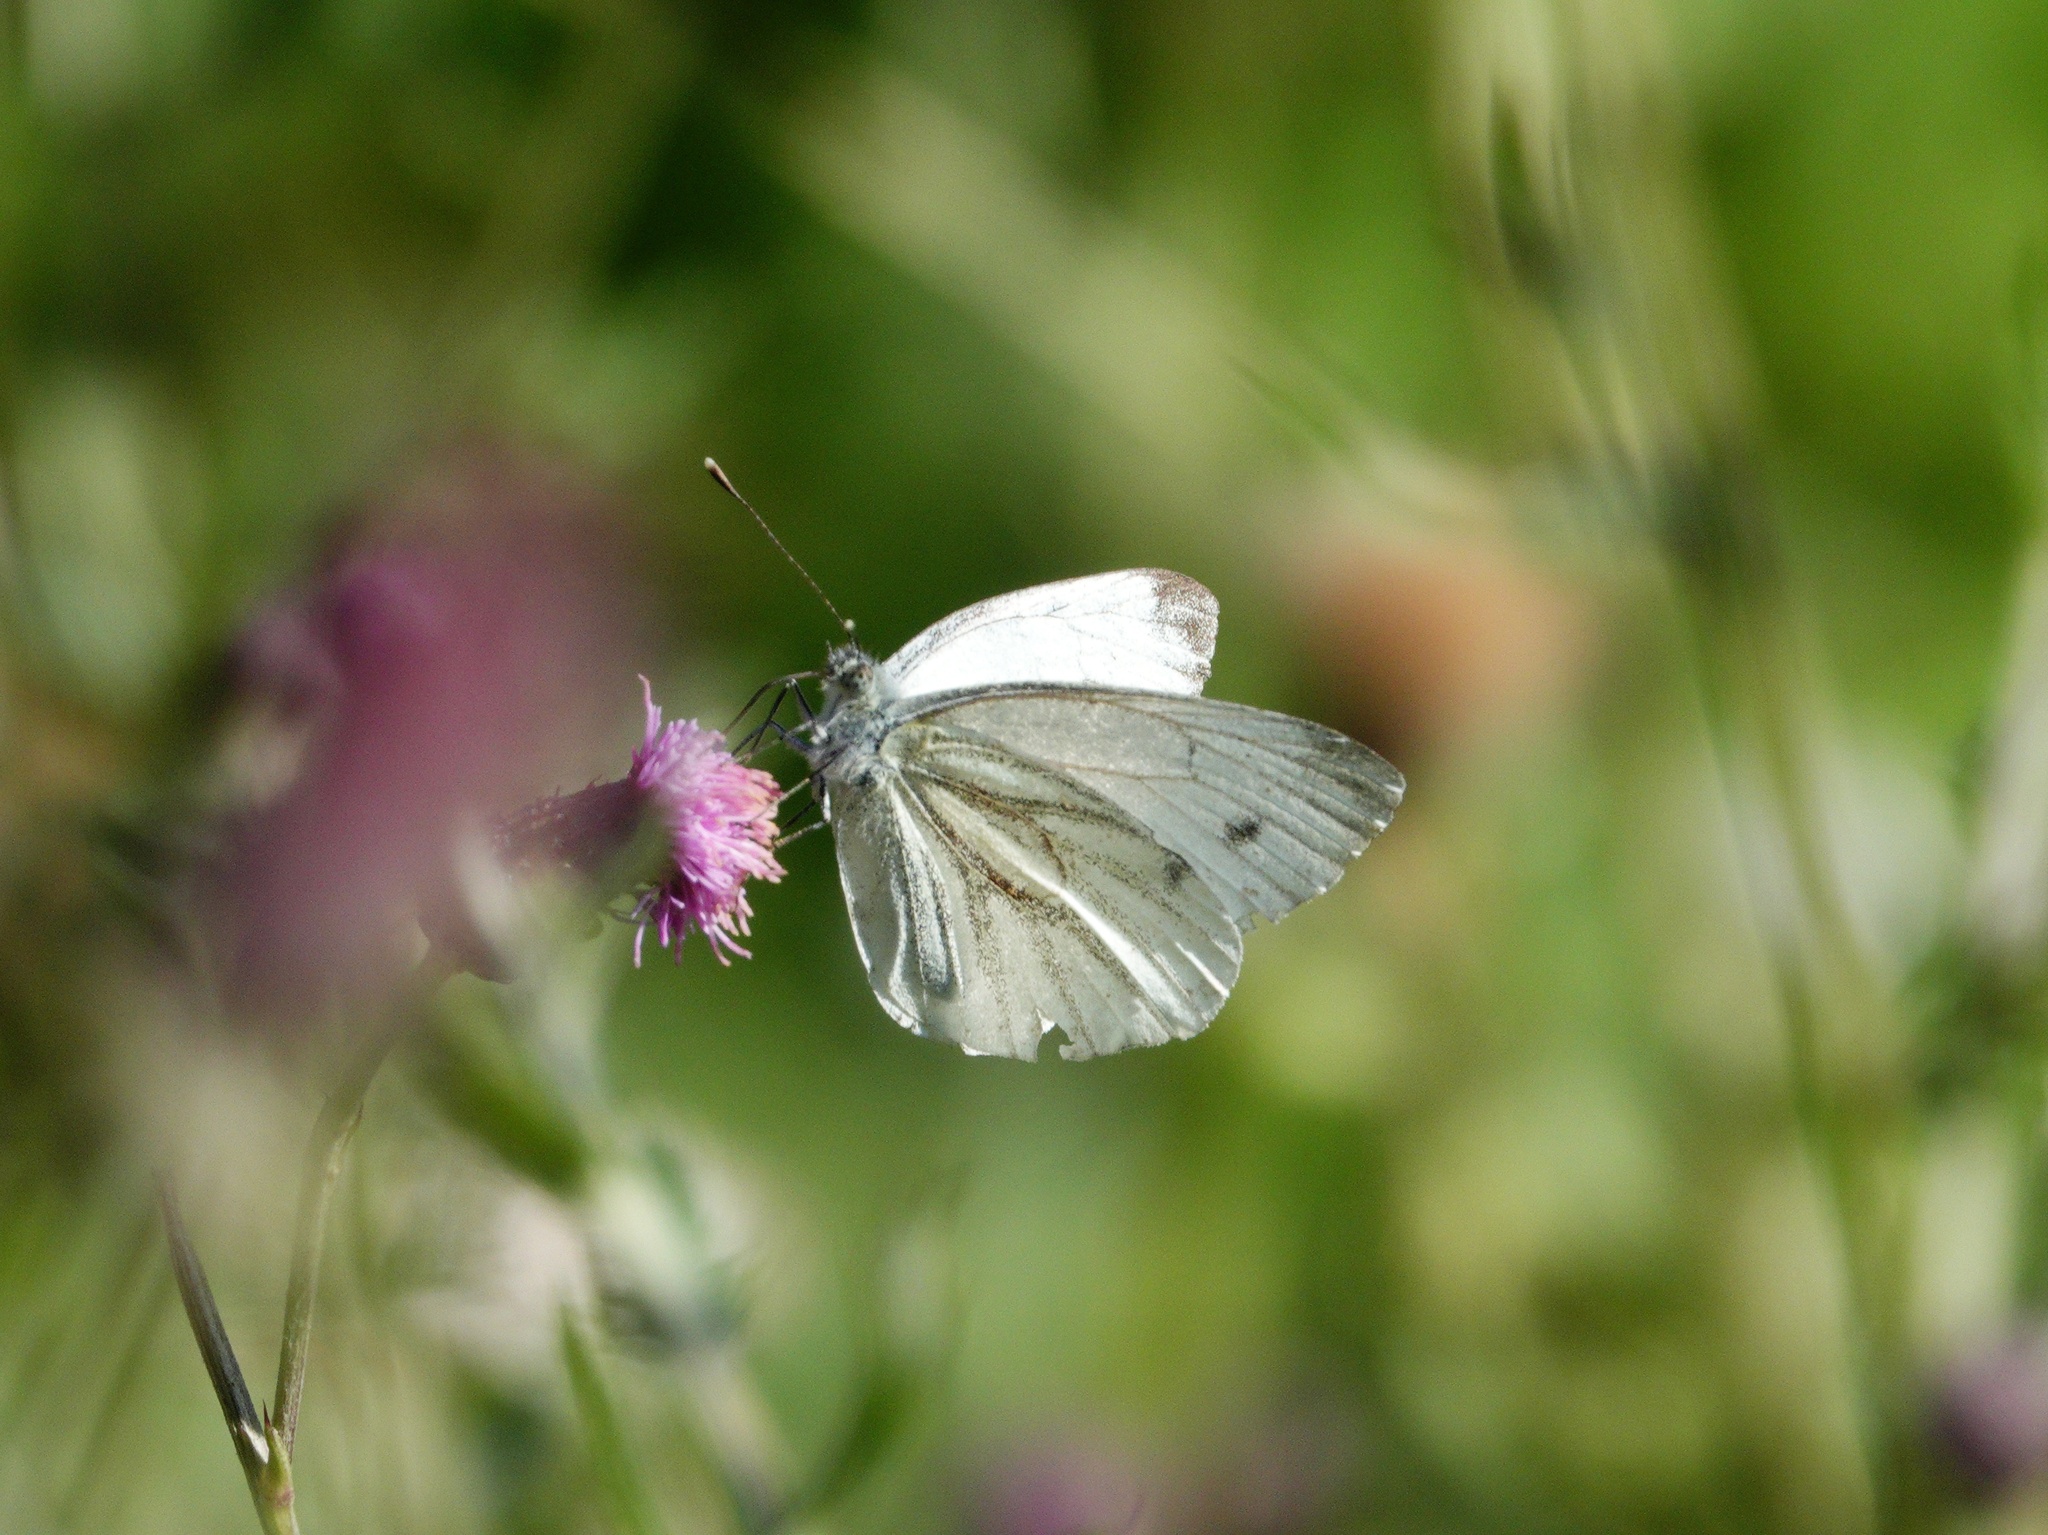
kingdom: Animalia
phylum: Arthropoda
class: Insecta
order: Lepidoptera
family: Pieridae
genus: Pieris
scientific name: Pieris napi
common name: Green-veined white
